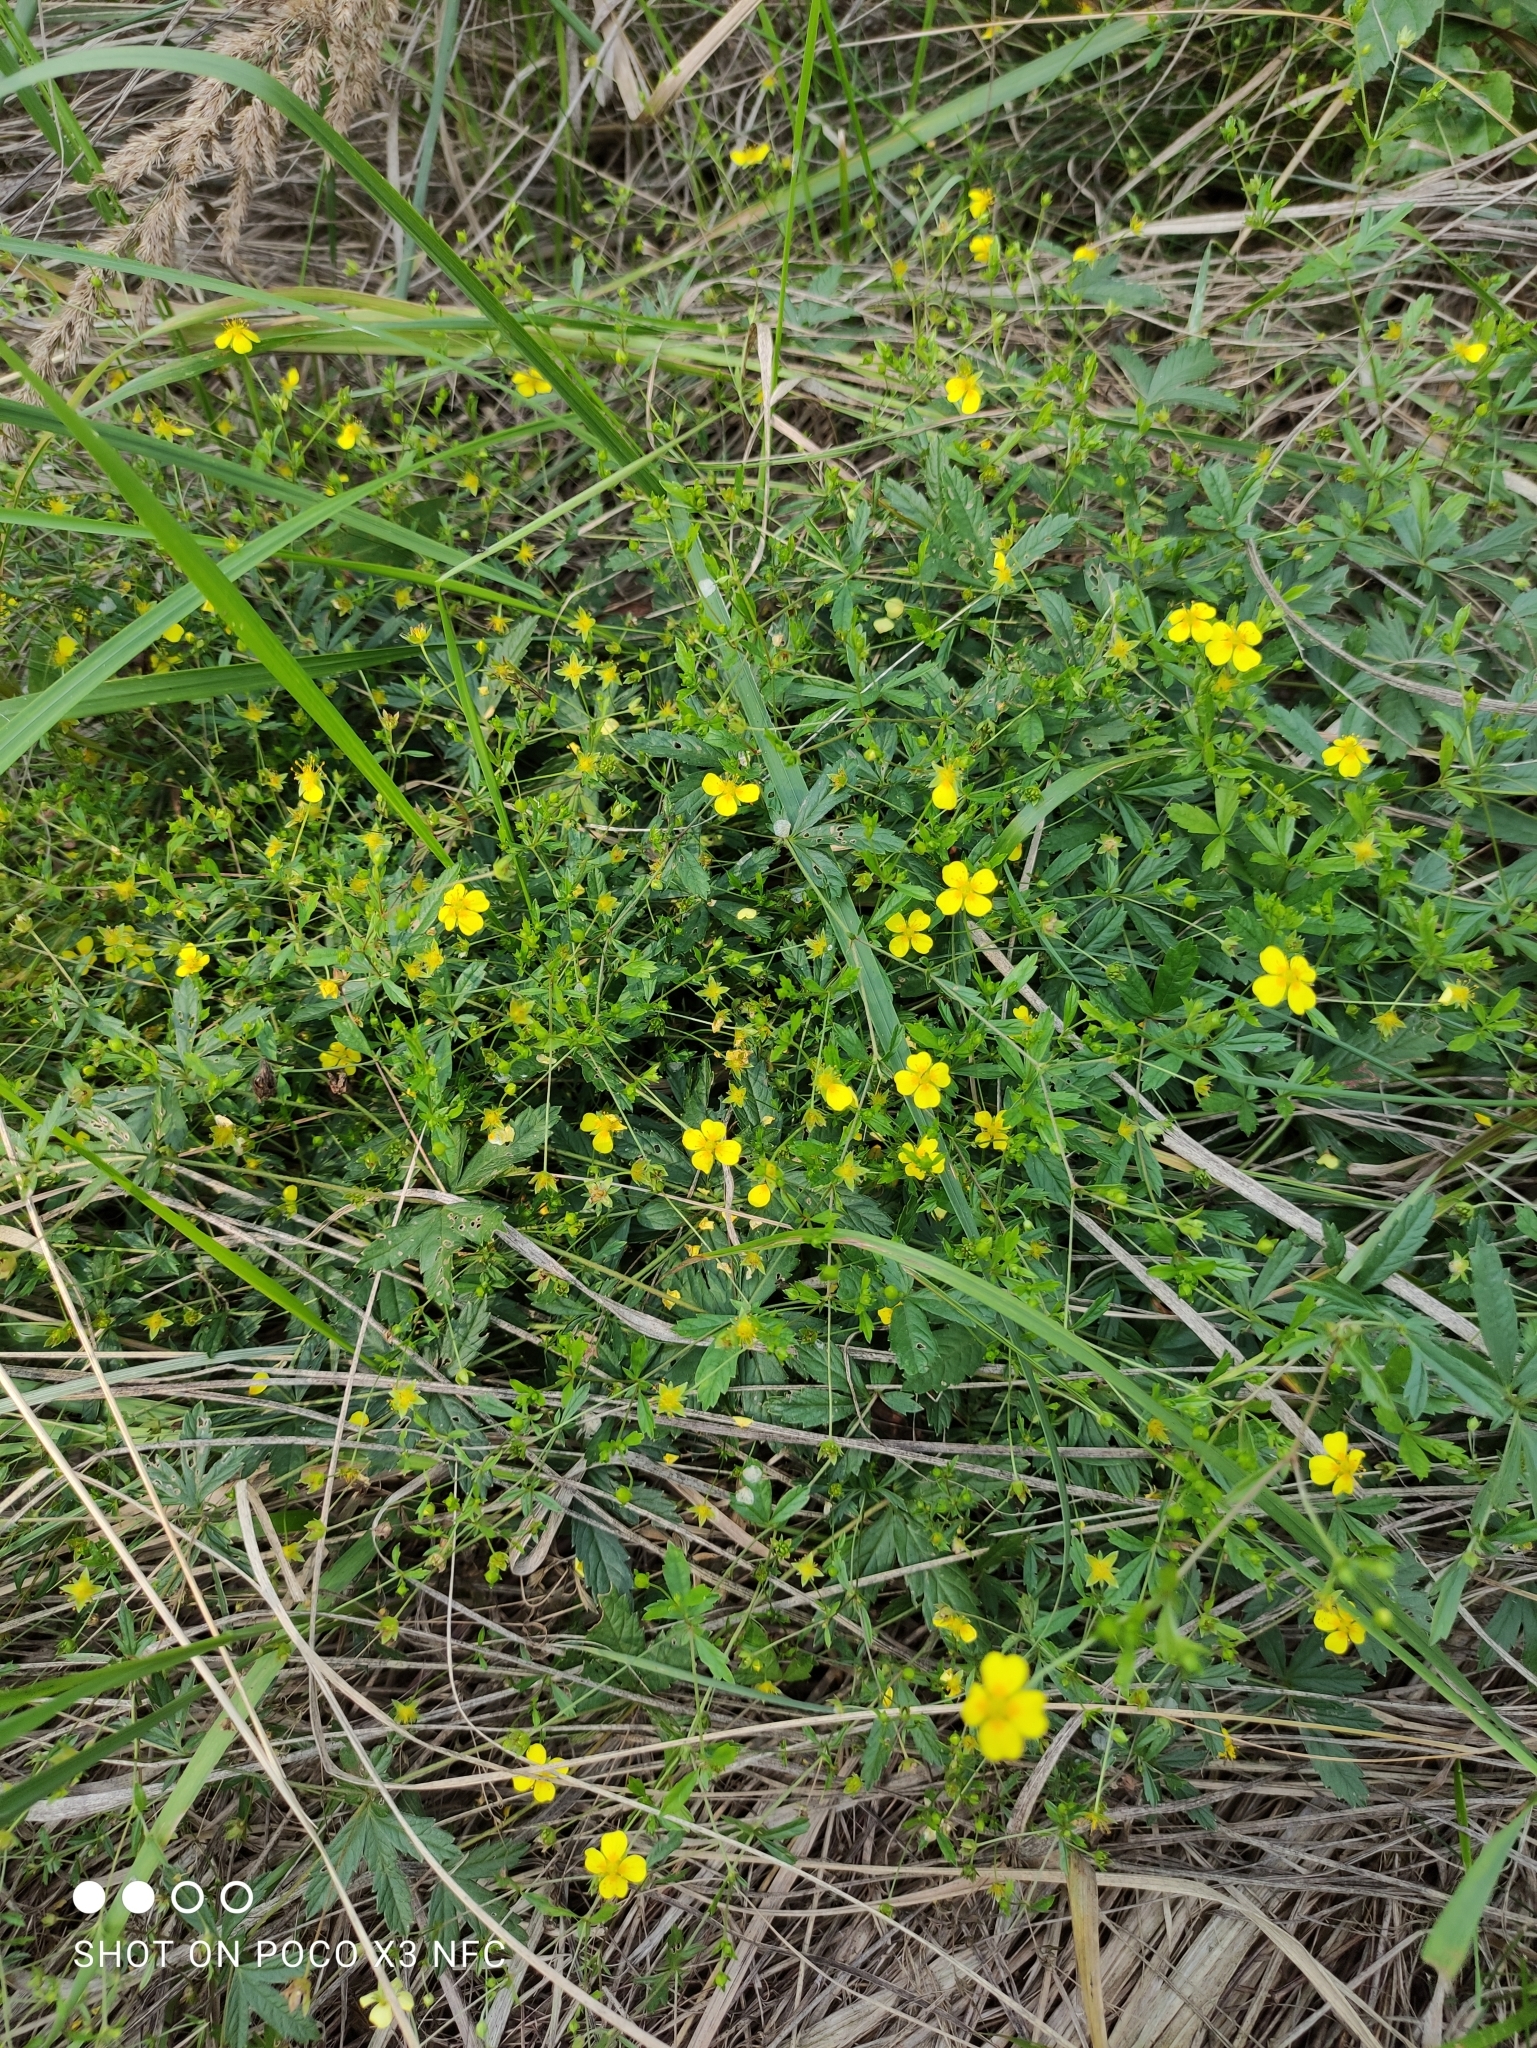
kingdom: Plantae
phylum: Tracheophyta
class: Magnoliopsida
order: Rosales
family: Rosaceae
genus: Potentilla
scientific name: Potentilla erecta
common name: Tormentil
